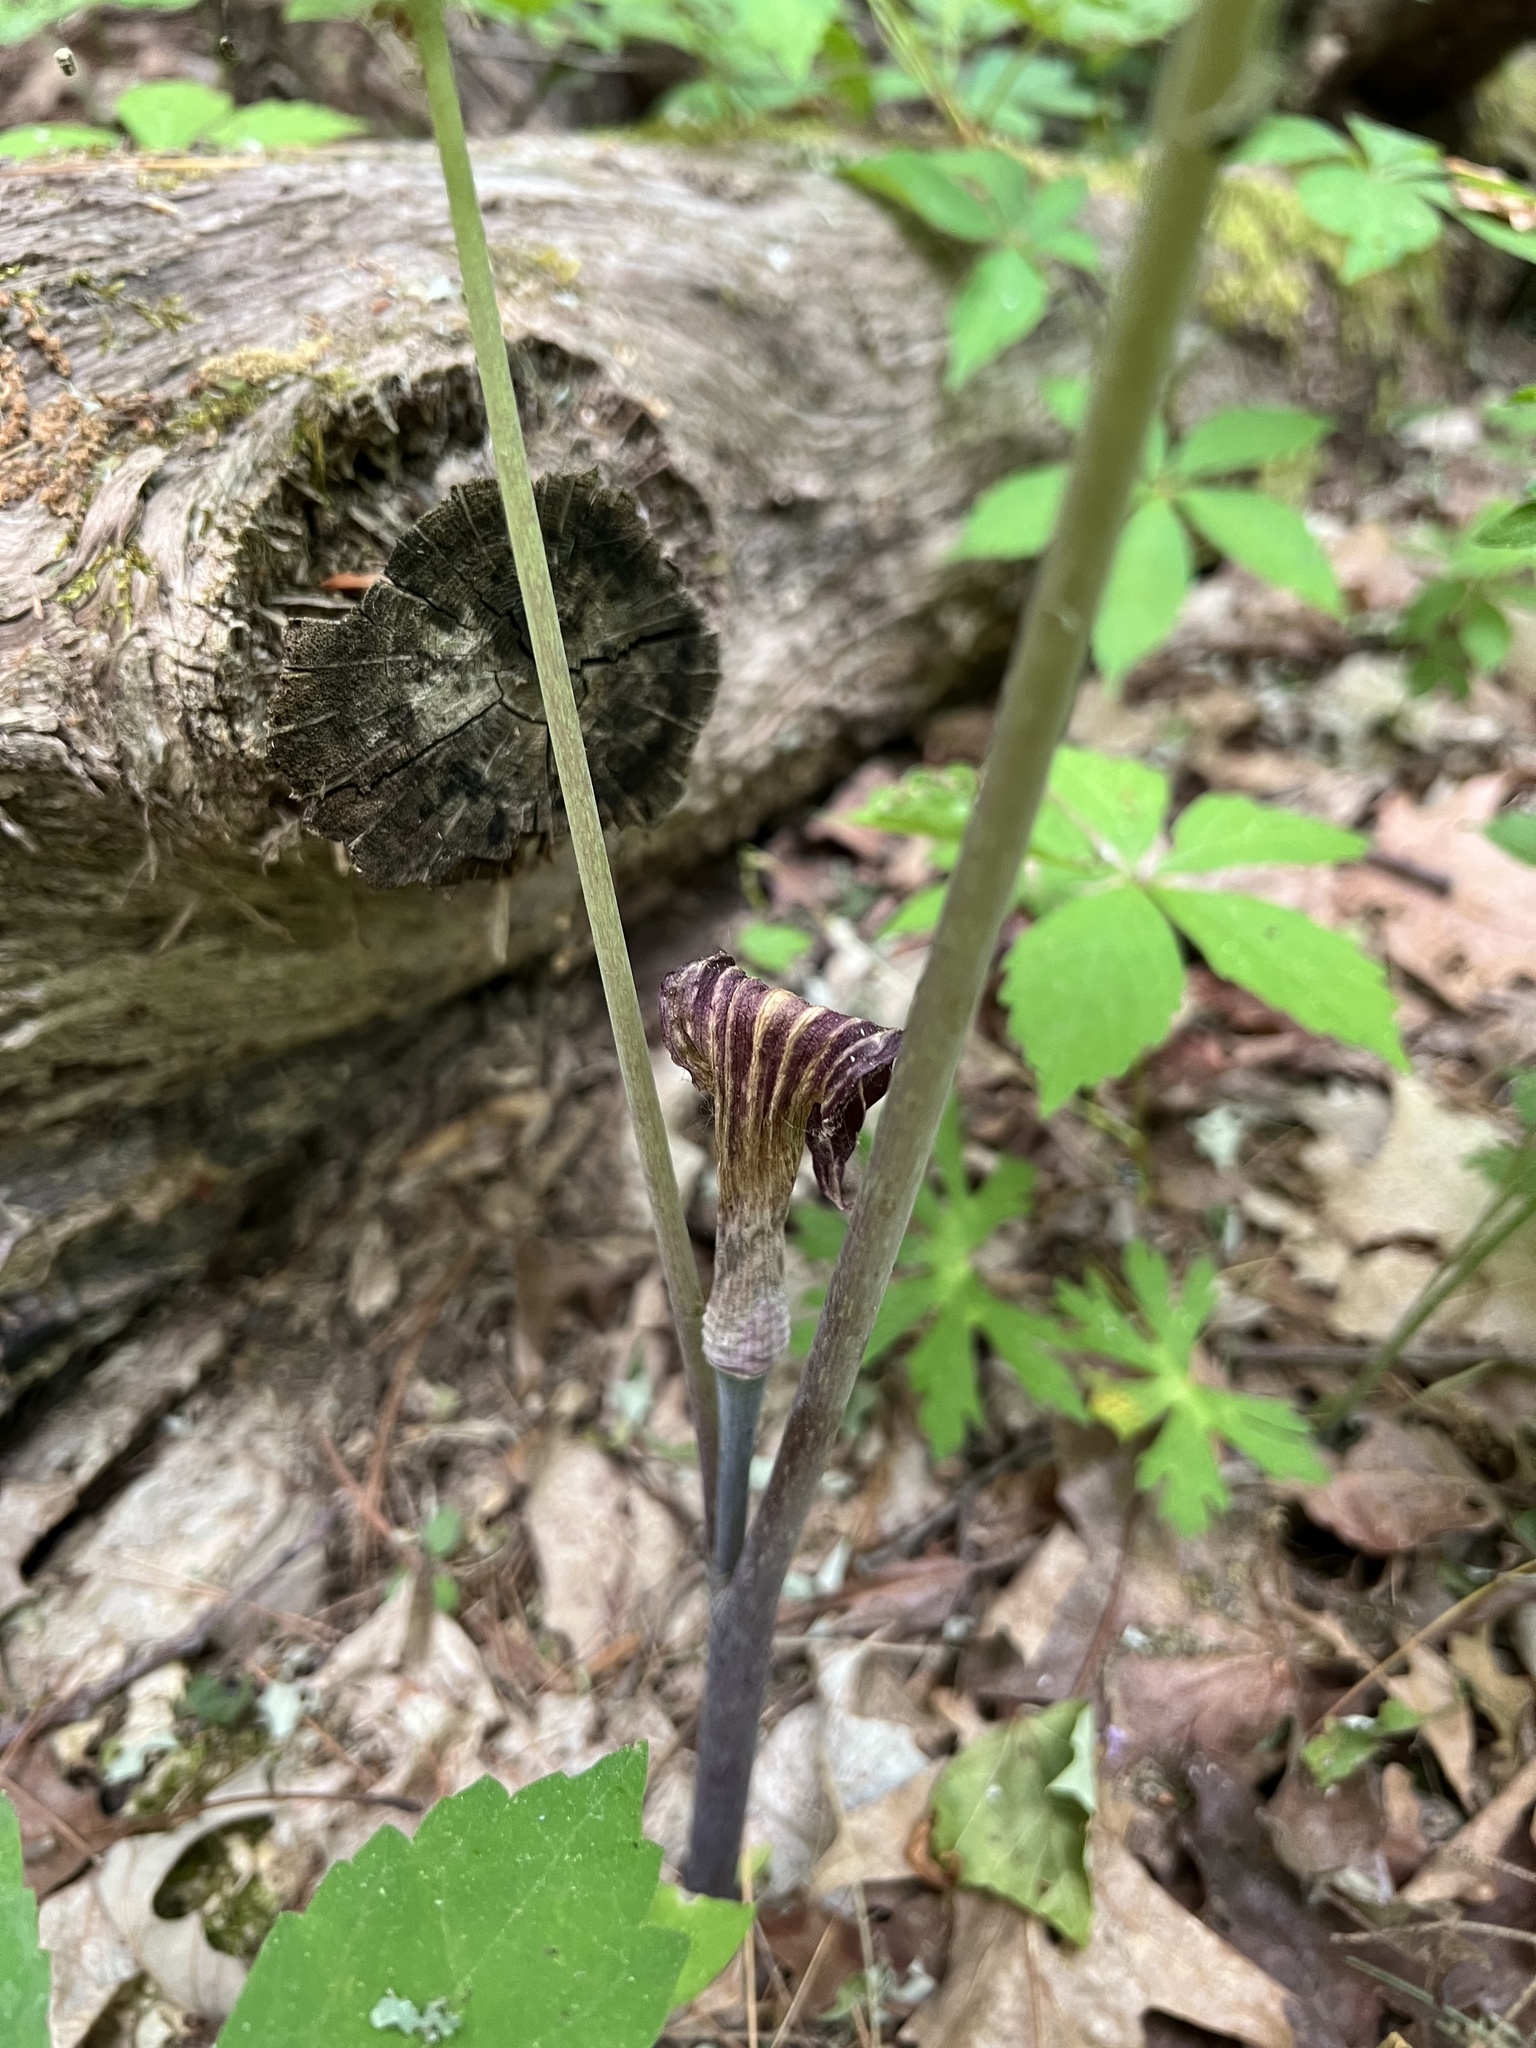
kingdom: Plantae
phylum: Tracheophyta
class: Liliopsida
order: Alismatales
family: Araceae
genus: Arisaema
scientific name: Arisaema triphyllum
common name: Jack-in-the-pulpit
